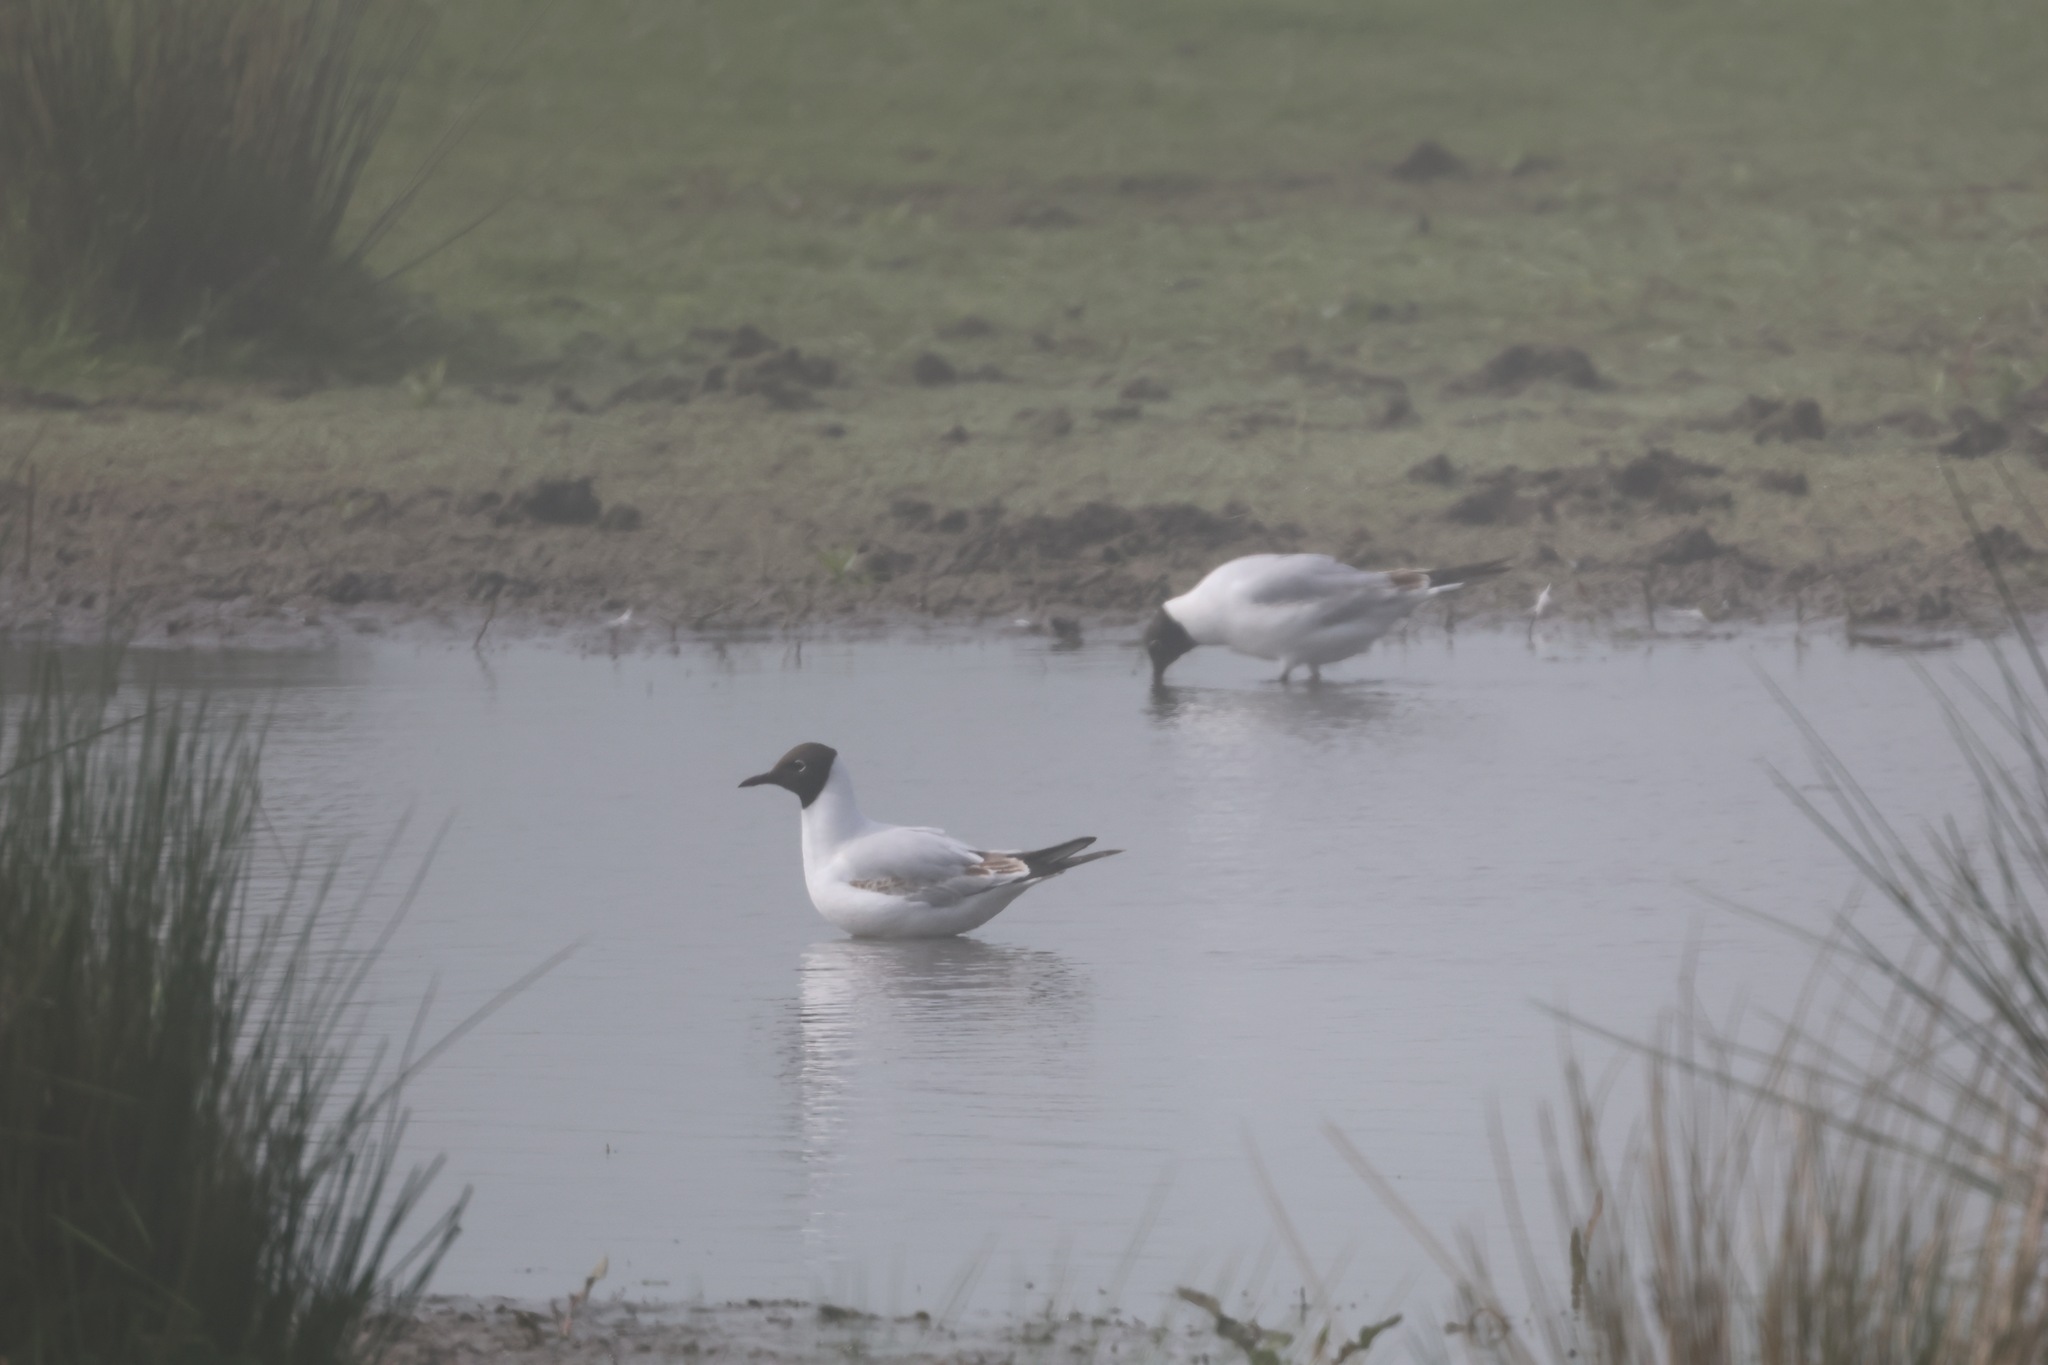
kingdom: Animalia
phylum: Chordata
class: Aves
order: Charadriiformes
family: Laridae
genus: Chroicocephalus
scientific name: Chroicocephalus ridibundus
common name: Black-headed gull
